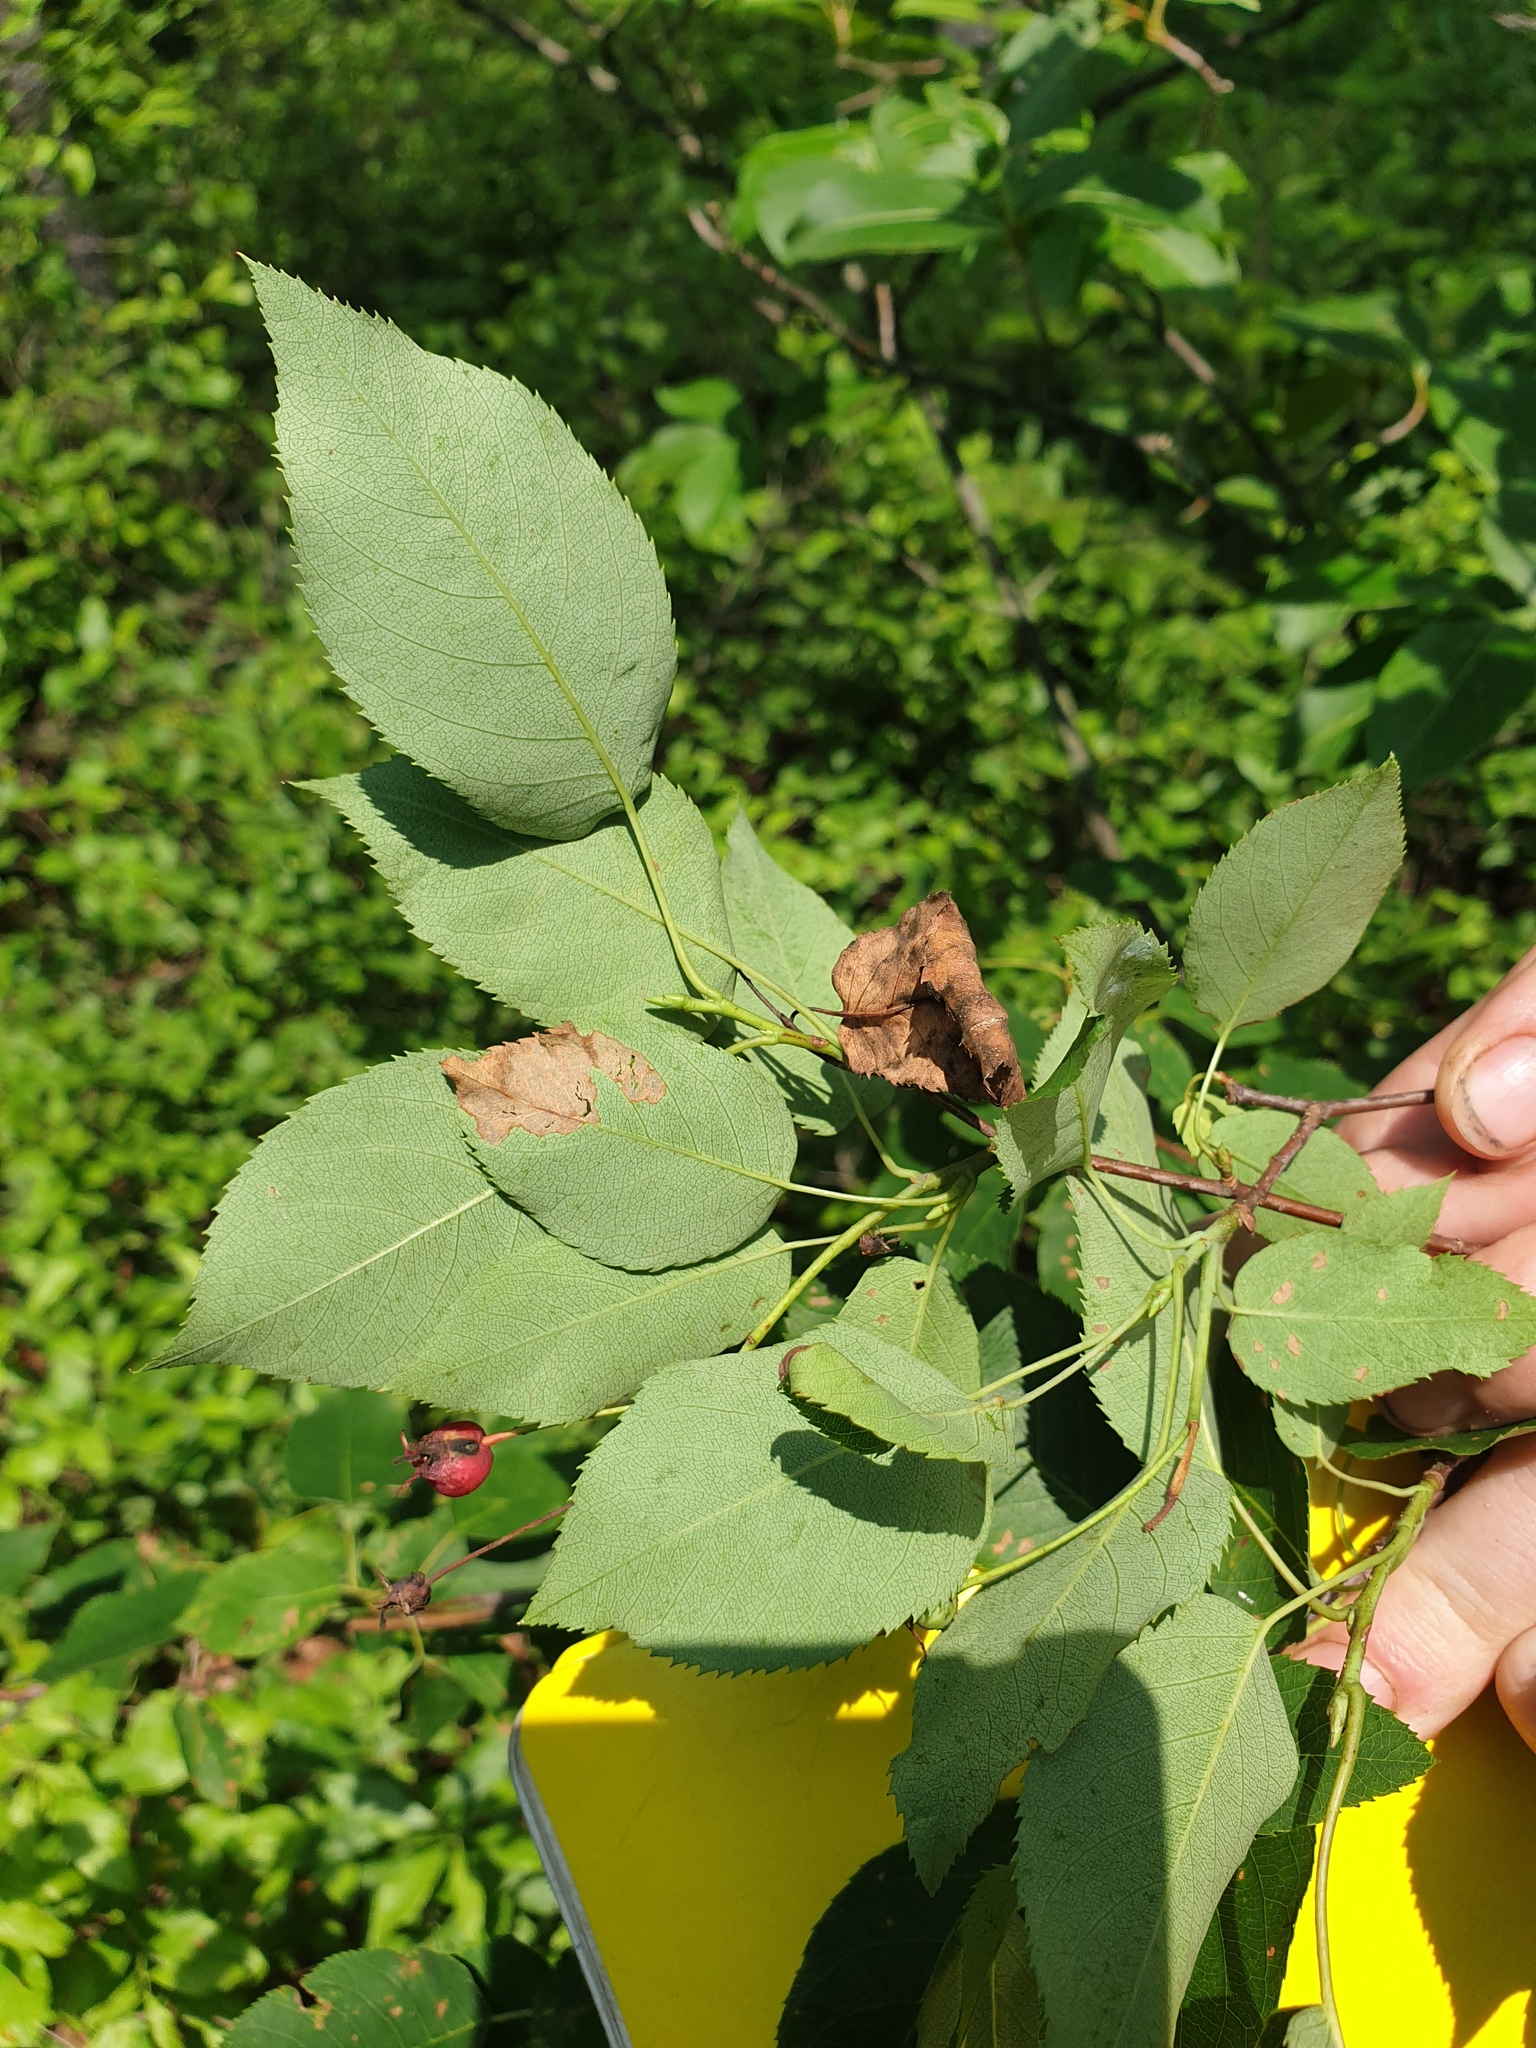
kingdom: Plantae
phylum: Tracheophyta
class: Magnoliopsida
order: Rosales
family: Rosaceae
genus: Amelanchier
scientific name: Amelanchier laevis
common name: Allegheny serviceberry
